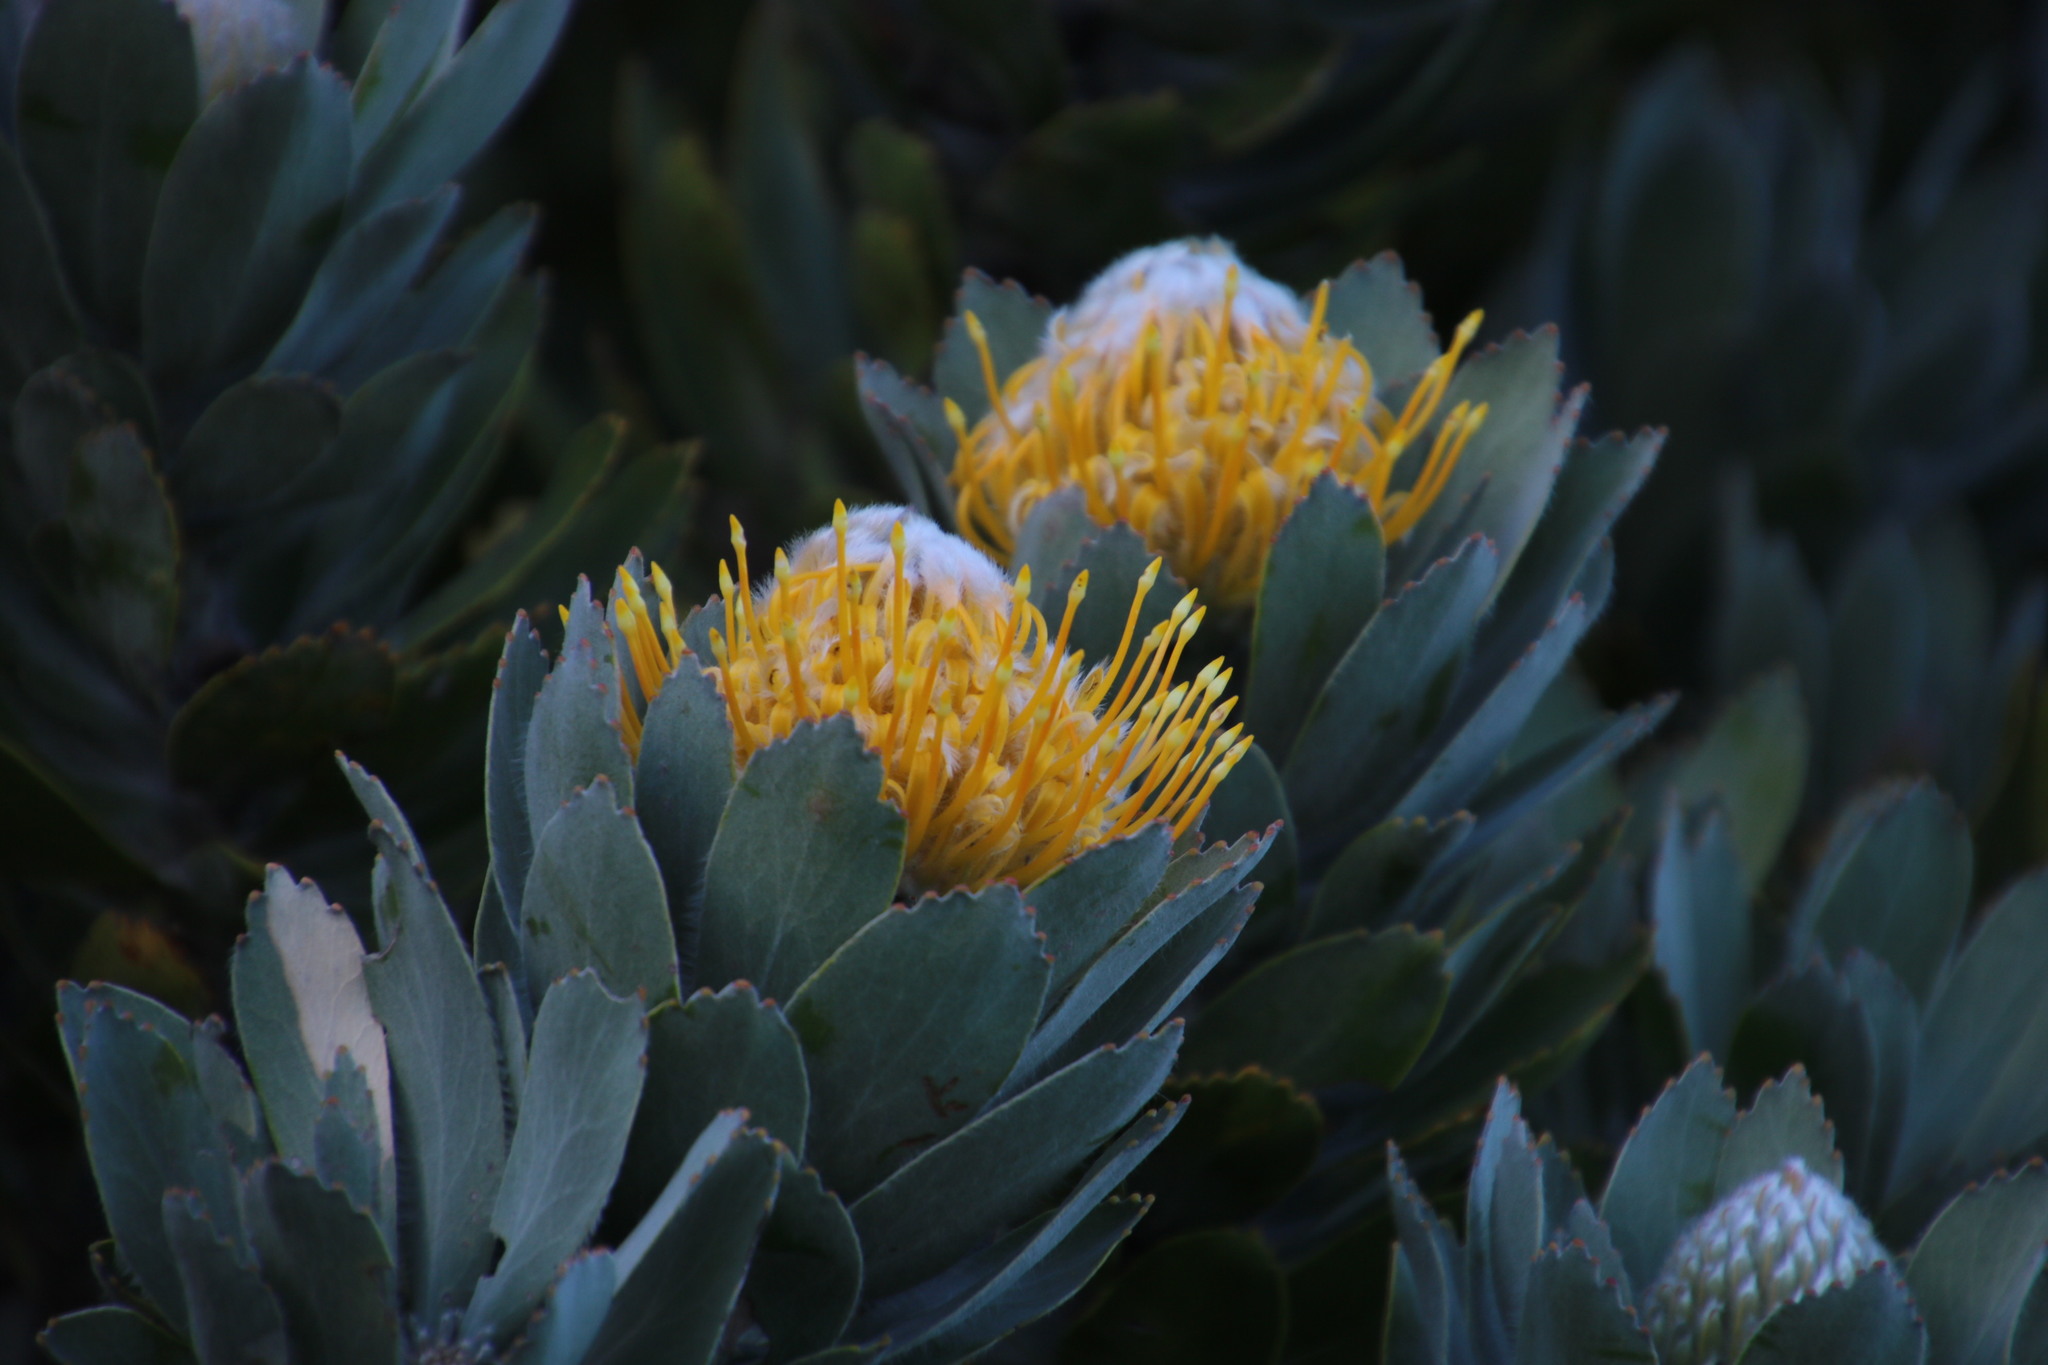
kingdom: Plantae
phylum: Tracheophyta
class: Magnoliopsida
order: Proteales
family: Proteaceae
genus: Leucospermum
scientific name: Leucospermum conocarpodendron
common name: Tree pincushion
